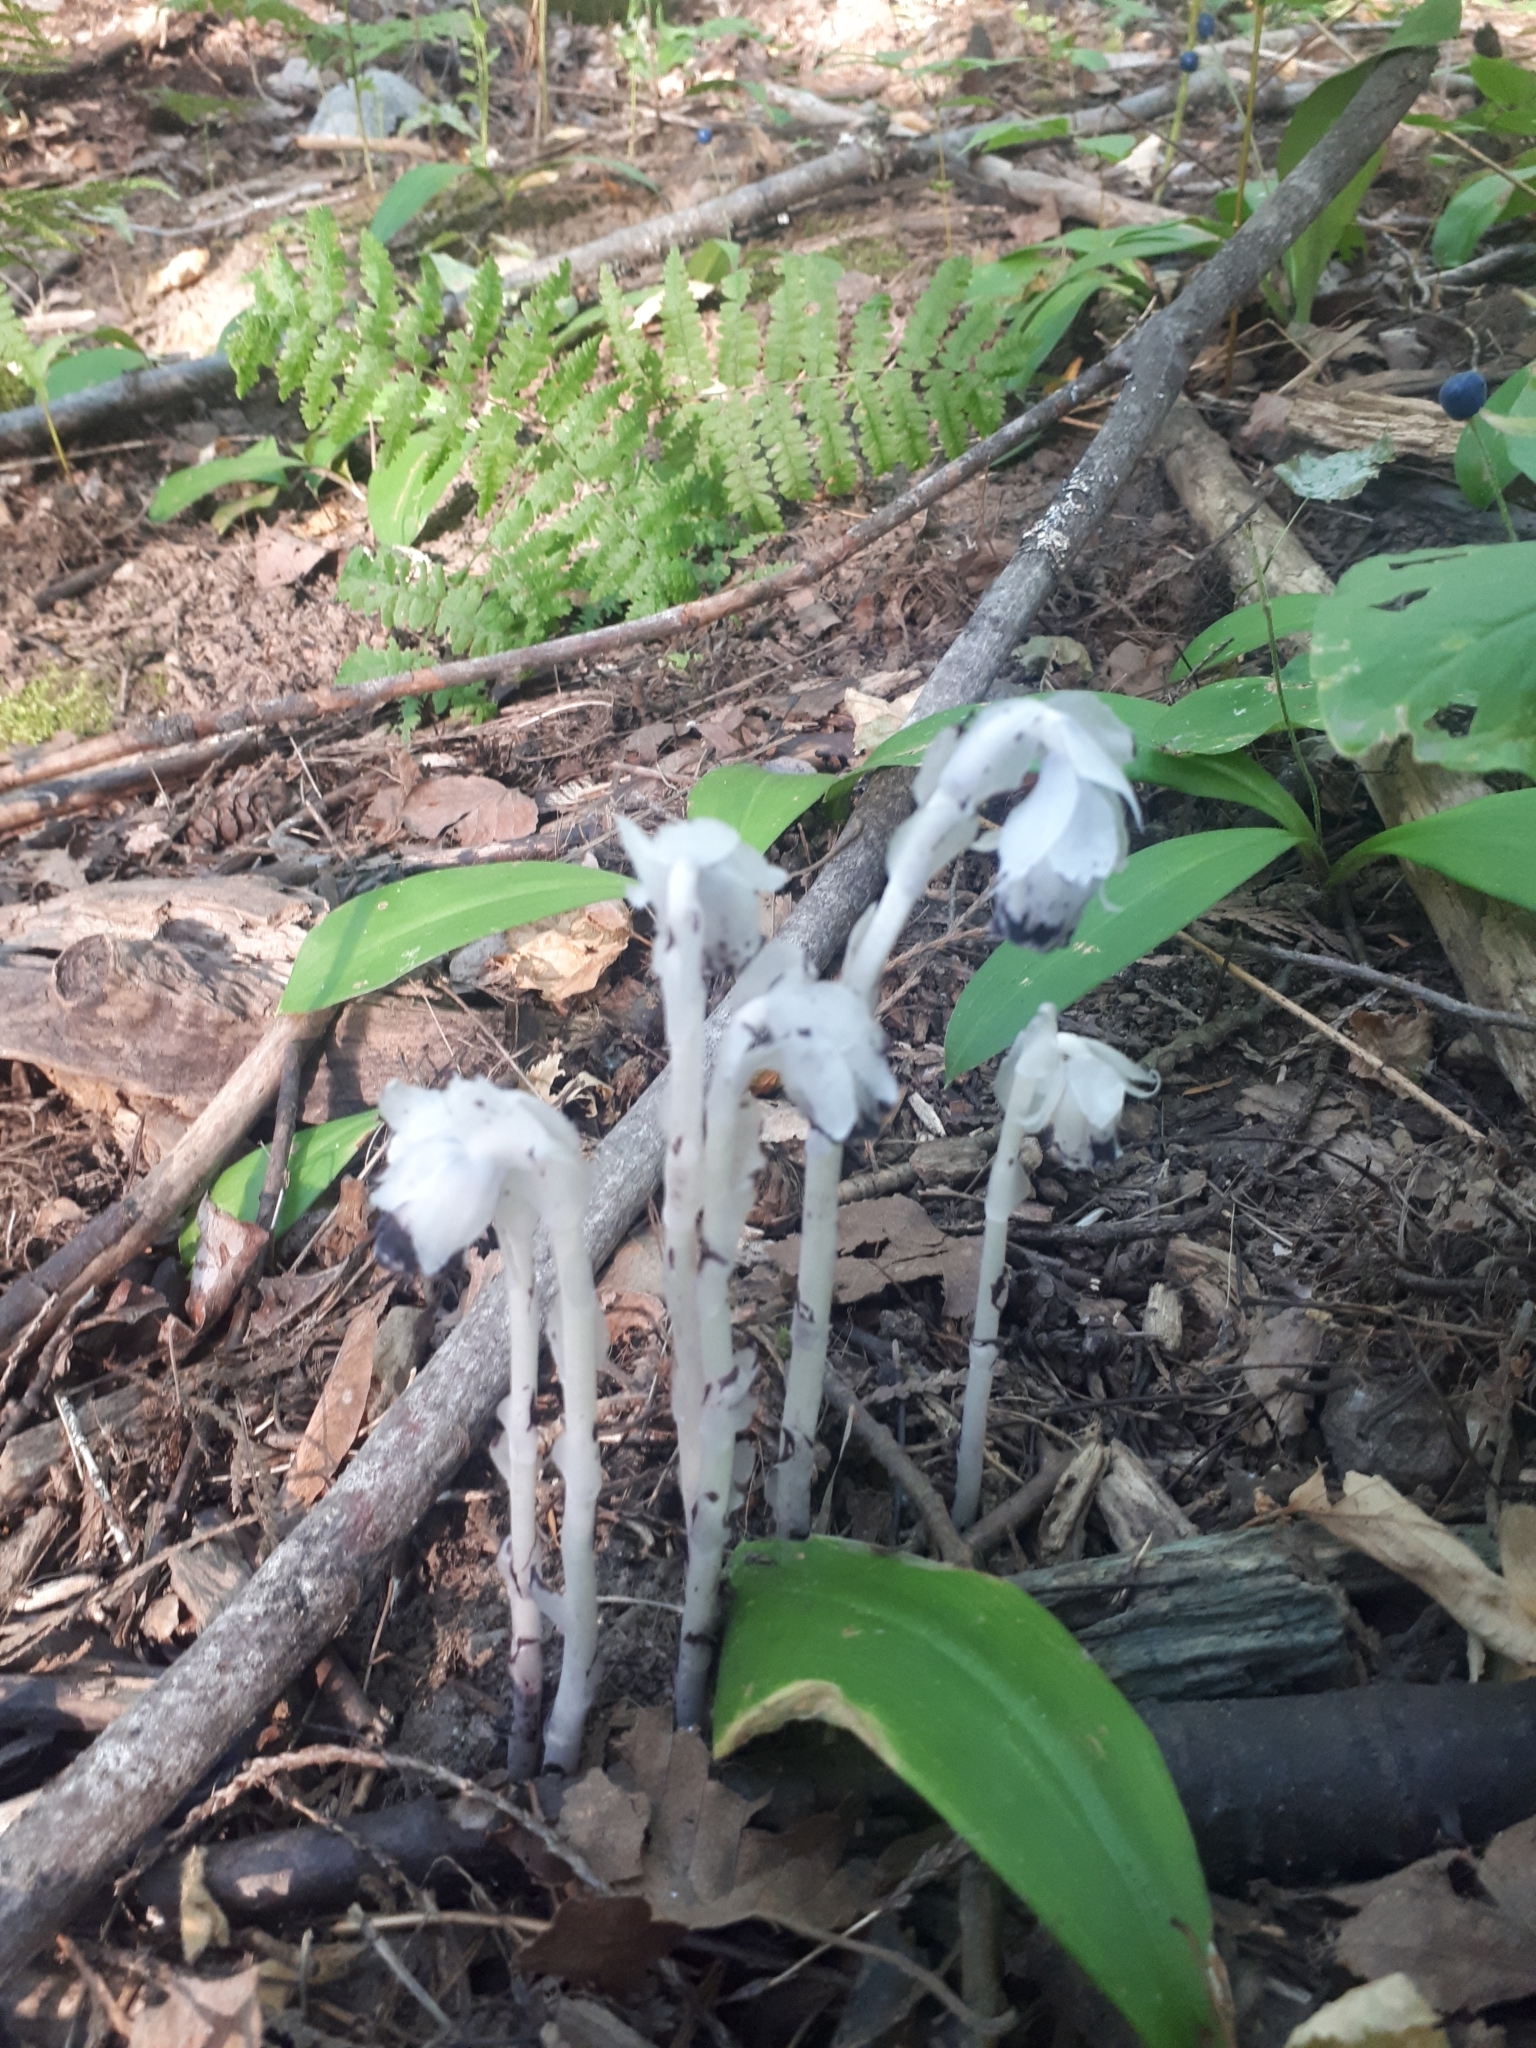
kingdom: Plantae
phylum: Tracheophyta
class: Magnoliopsida
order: Ericales
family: Ericaceae
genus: Monotropa
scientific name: Monotropa uniflora
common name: Convulsion root
